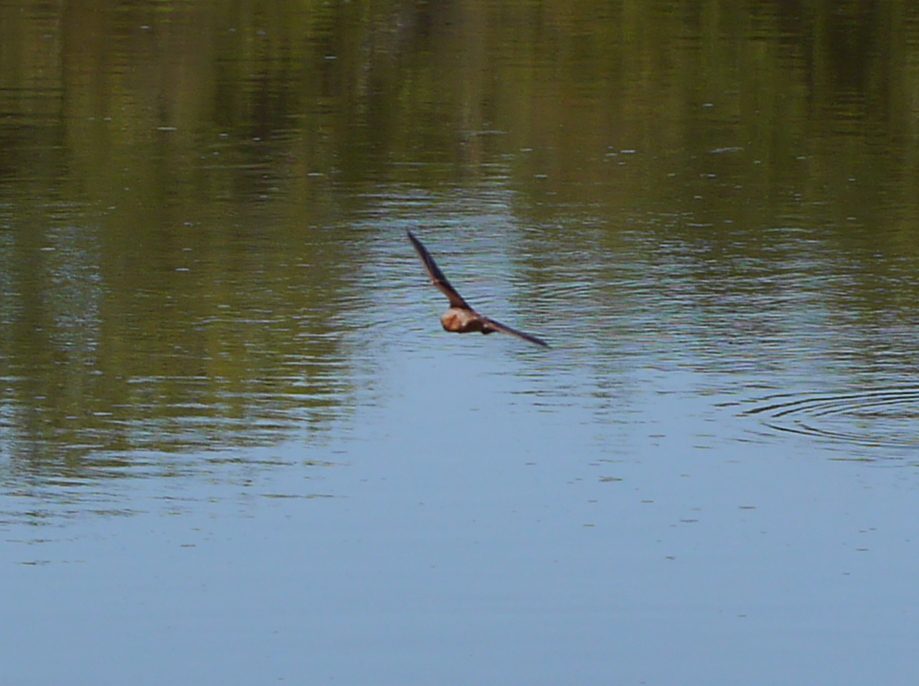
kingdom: Animalia
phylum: Chordata
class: Mammalia
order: Chiroptera
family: Vespertilionidae
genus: Lasiurus
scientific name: Lasiurus borealis
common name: Eastern red bat
